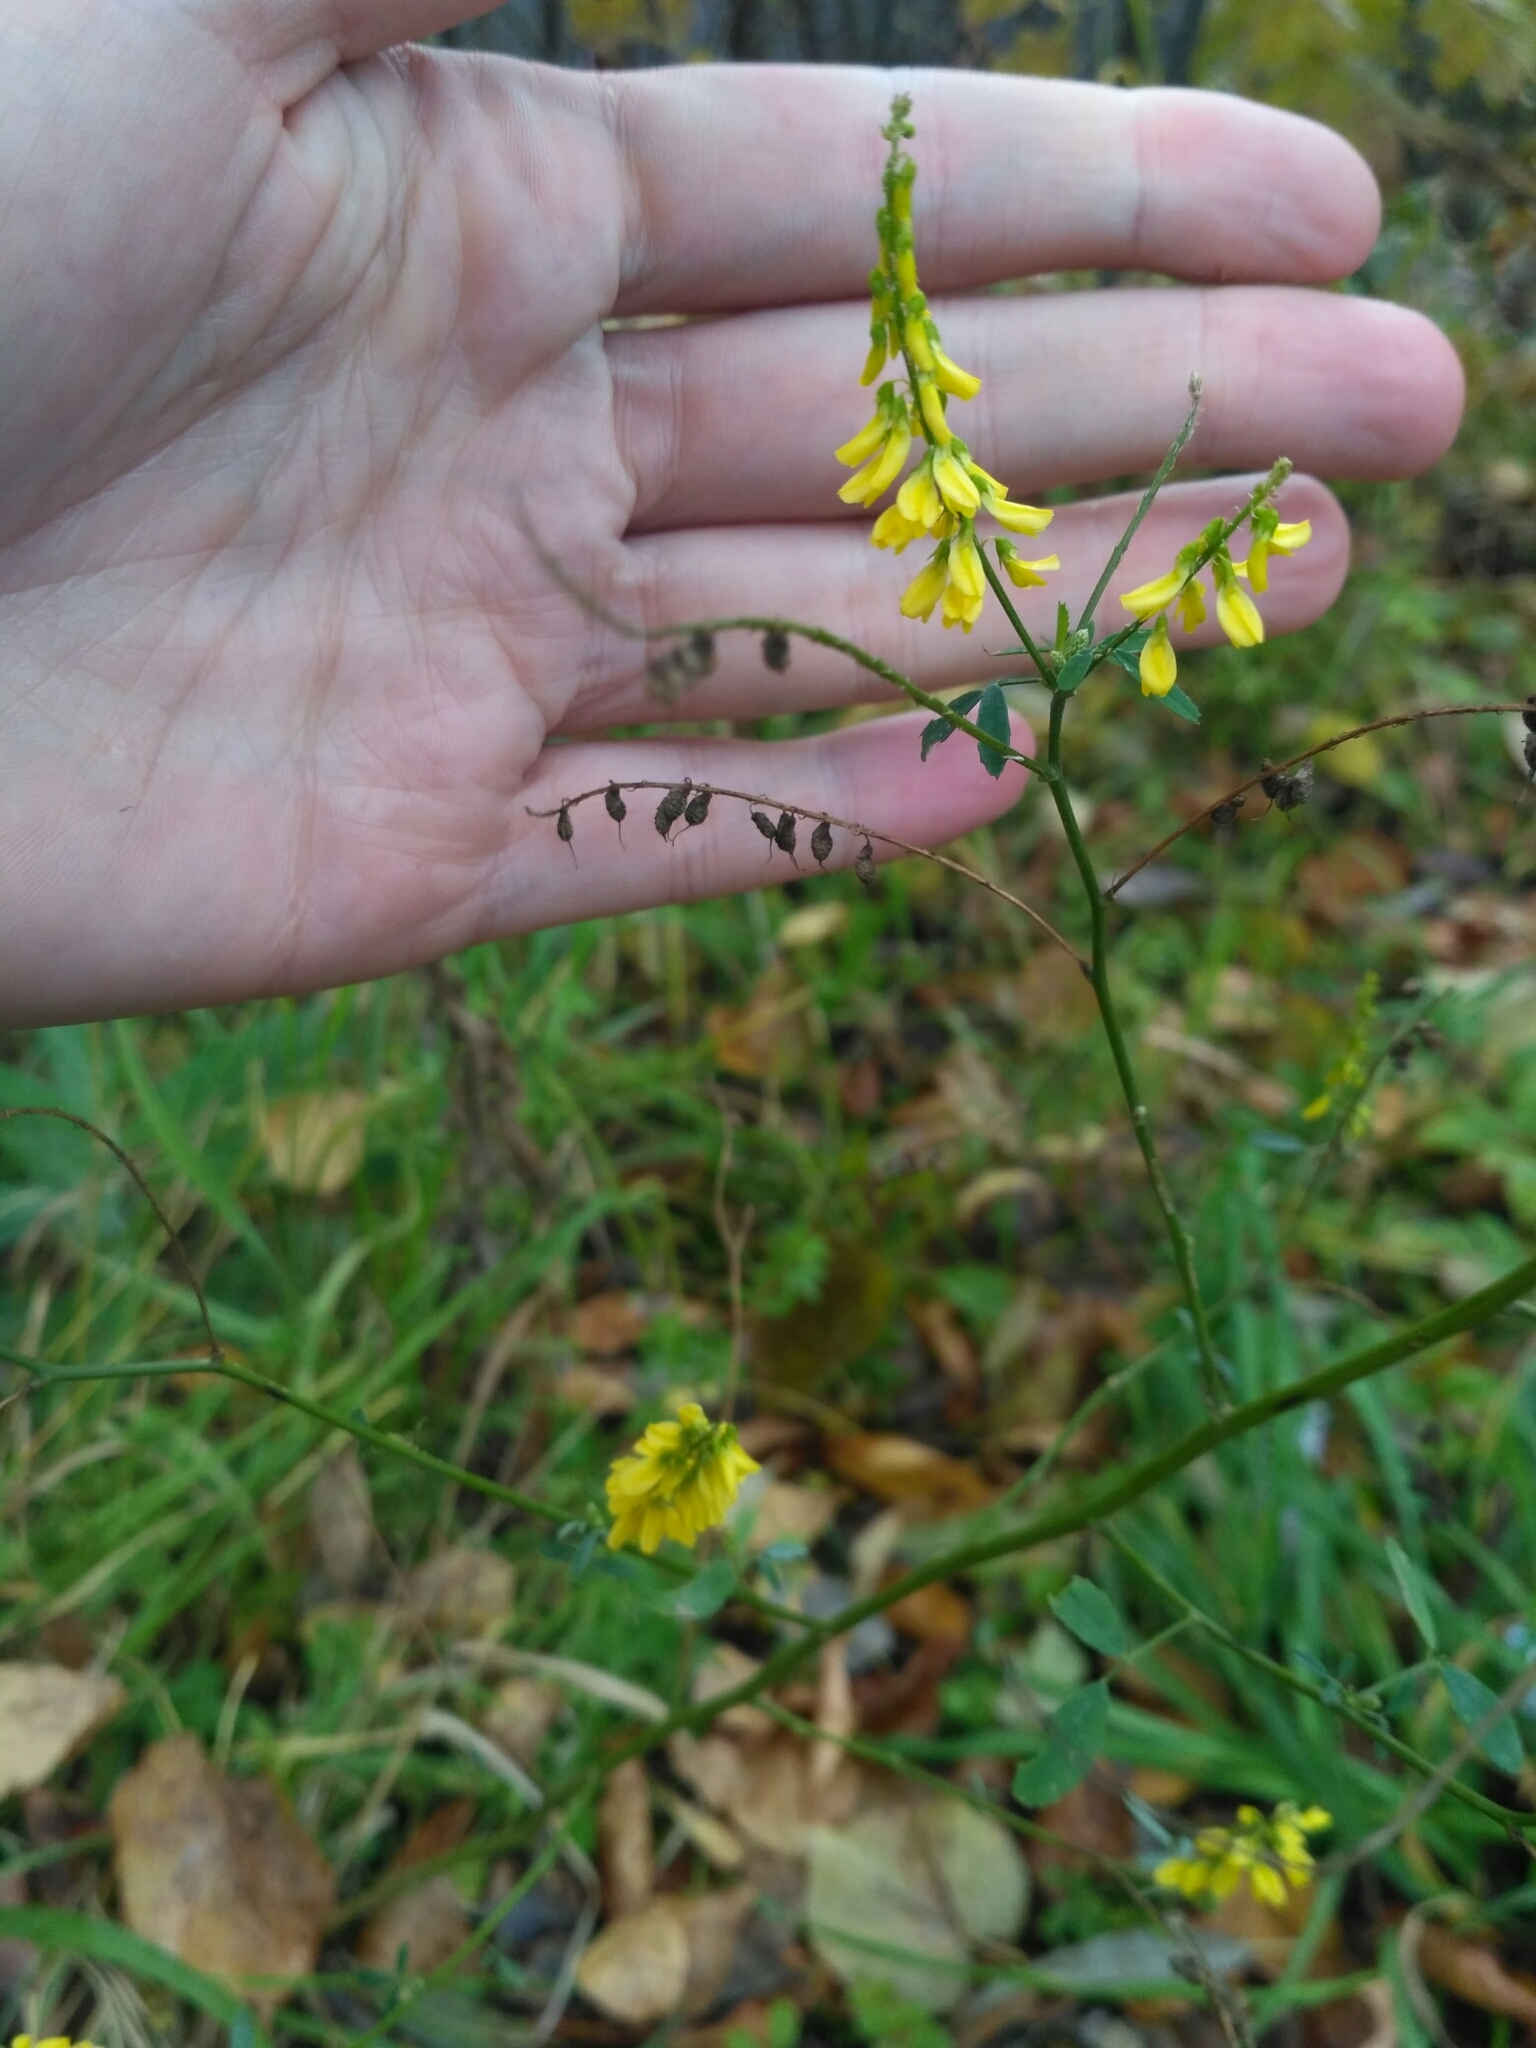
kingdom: Plantae
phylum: Tracheophyta
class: Magnoliopsida
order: Fabales
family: Fabaceae
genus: Melilotus
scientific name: Melilotus officinalis
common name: Sweetclover
